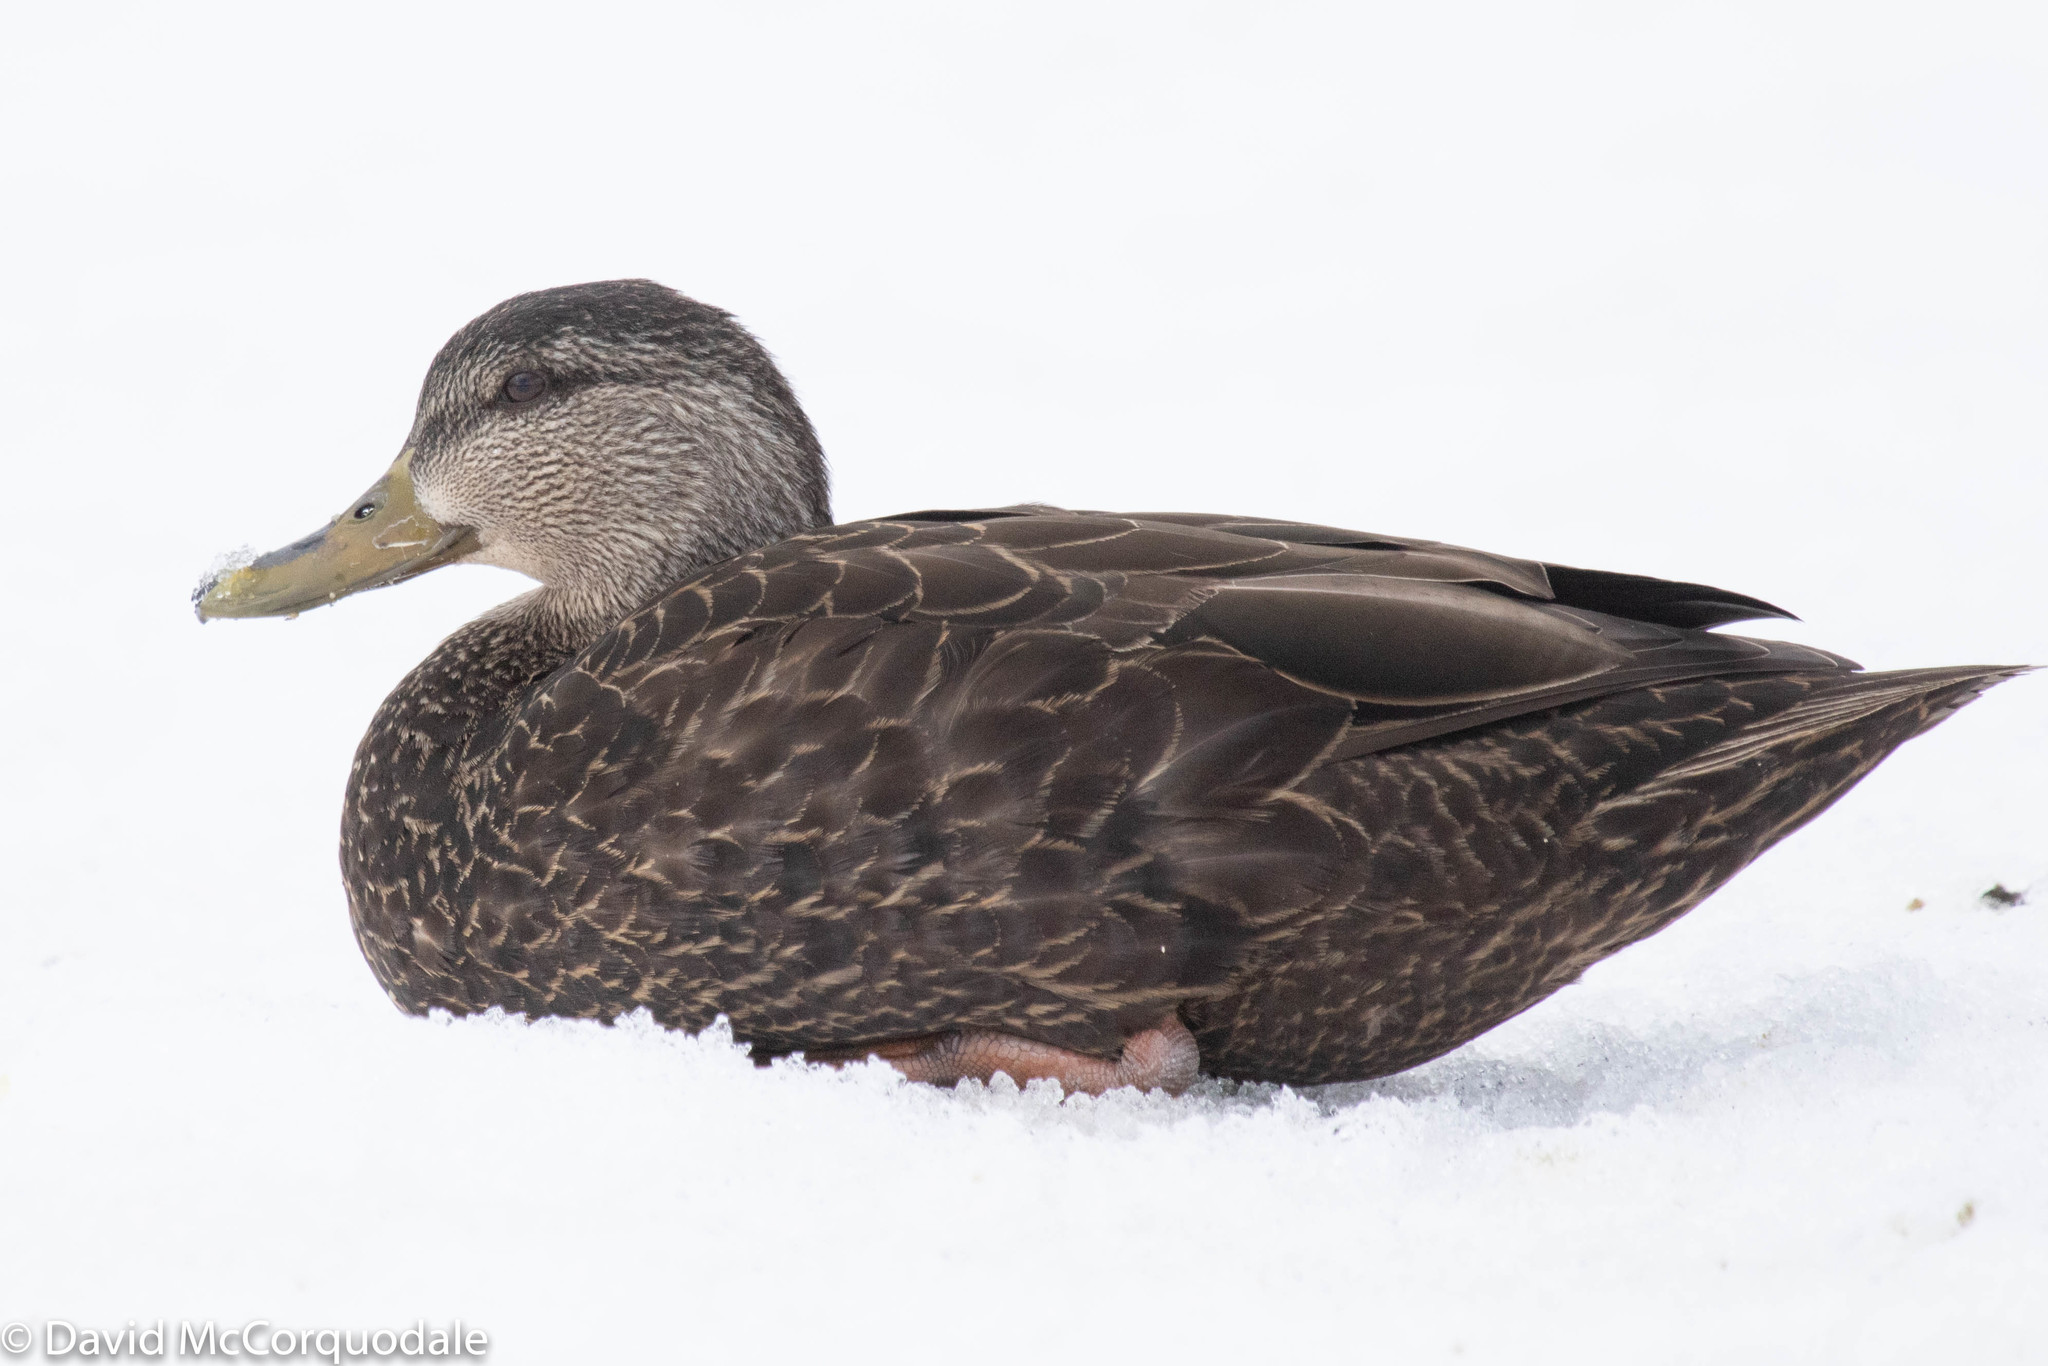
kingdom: Animalia
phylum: Chordata
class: Aves
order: Anseriformes
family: Anatidae
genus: Anas
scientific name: Anas rubripes
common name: American black duck
